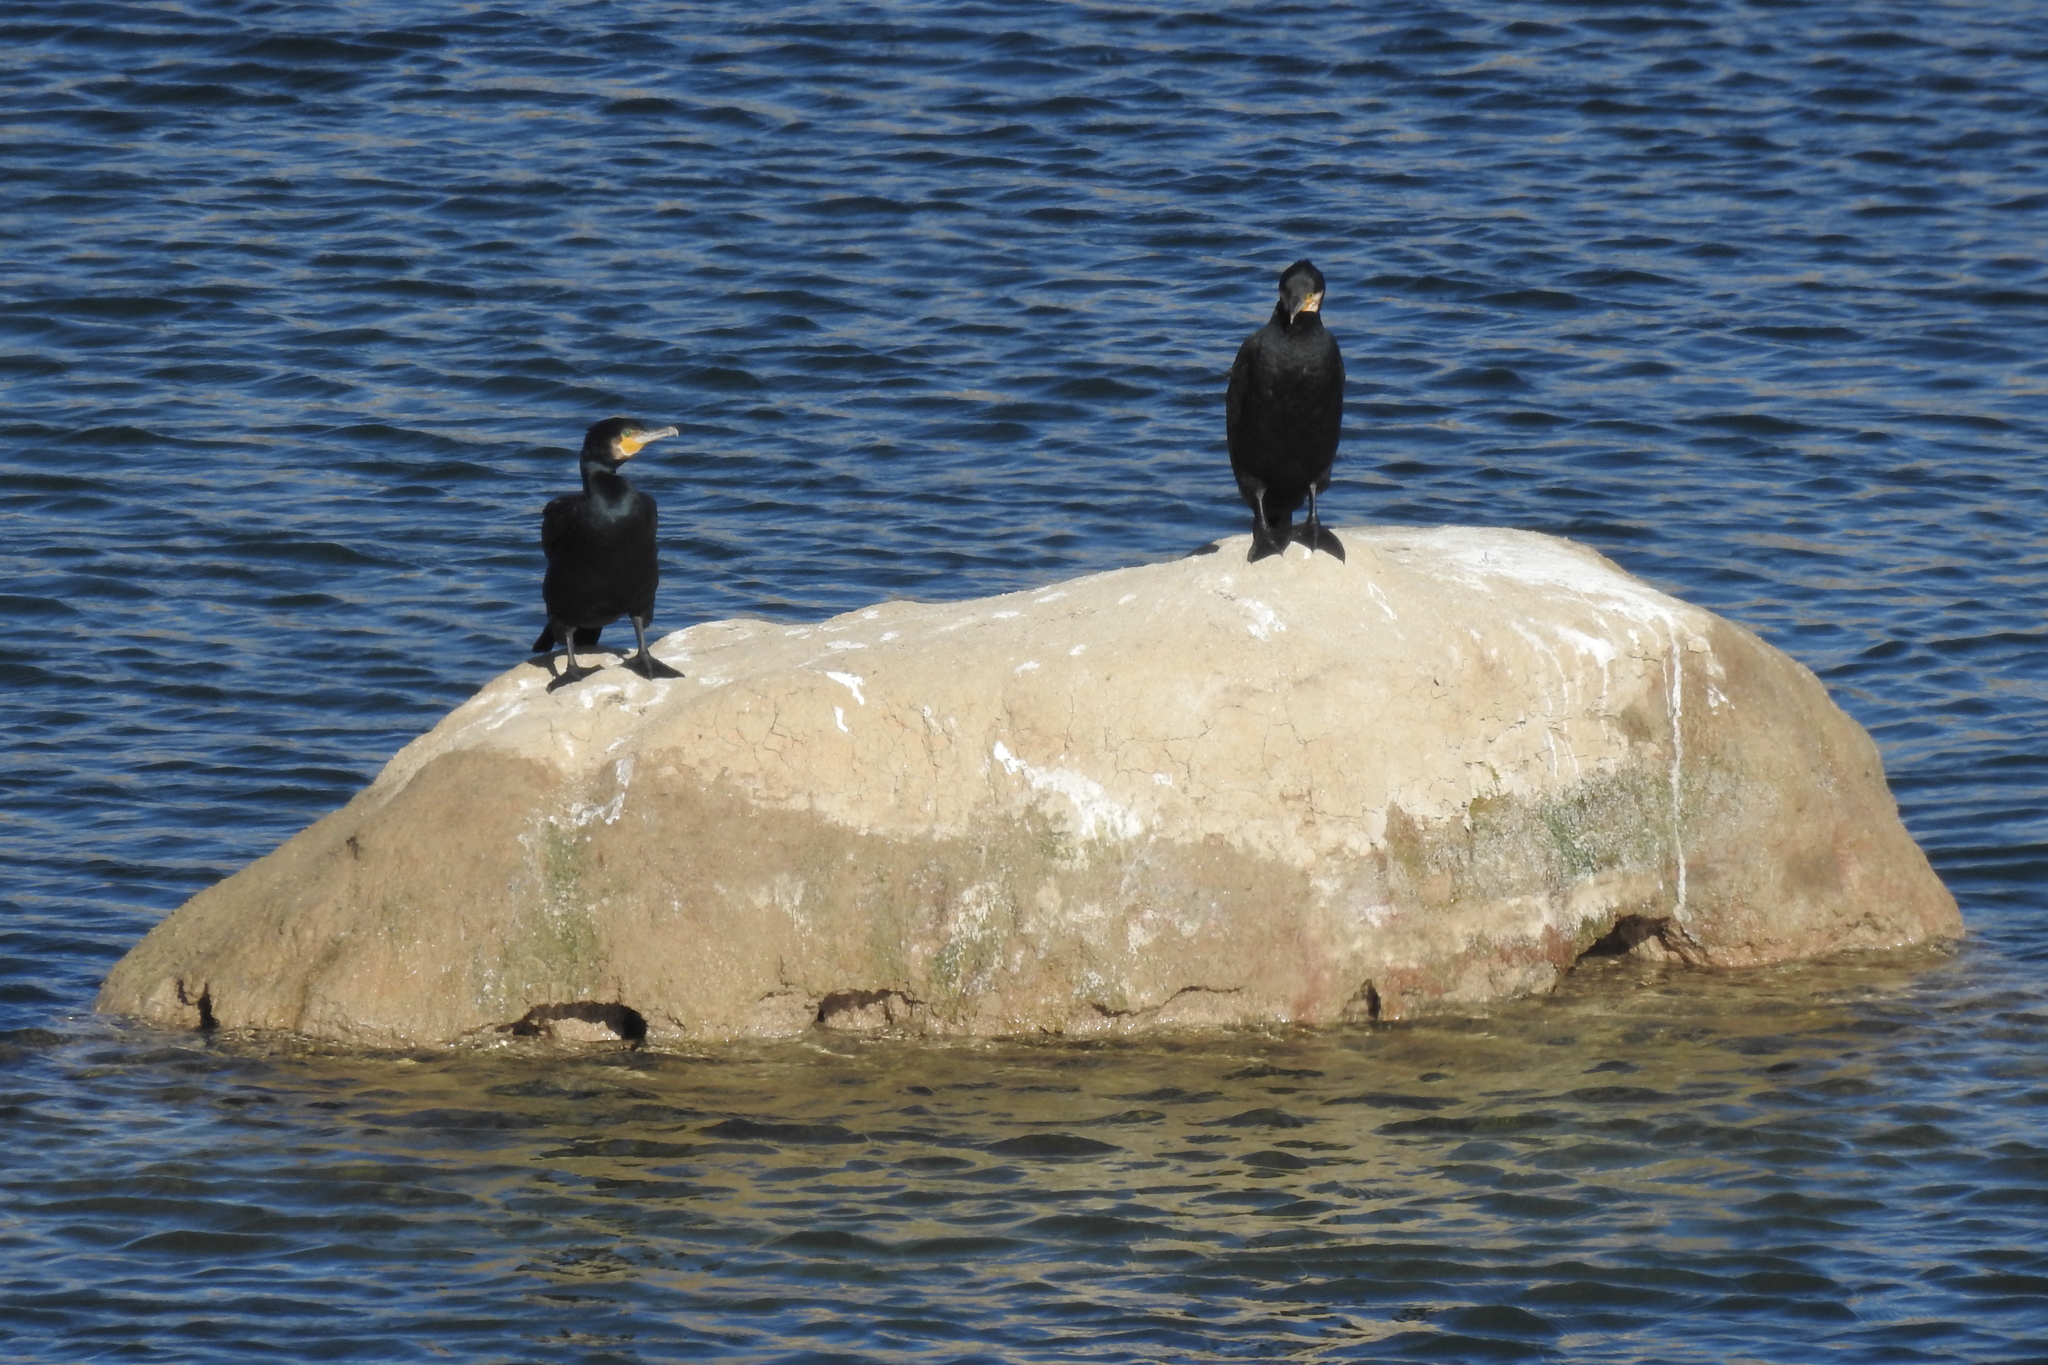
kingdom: Animalia
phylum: Chordata
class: Aves
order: Suliformes
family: Phalacrocoracidae
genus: Phalacrocorax
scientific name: Phalacrocorax carbo
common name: Great cormorant
